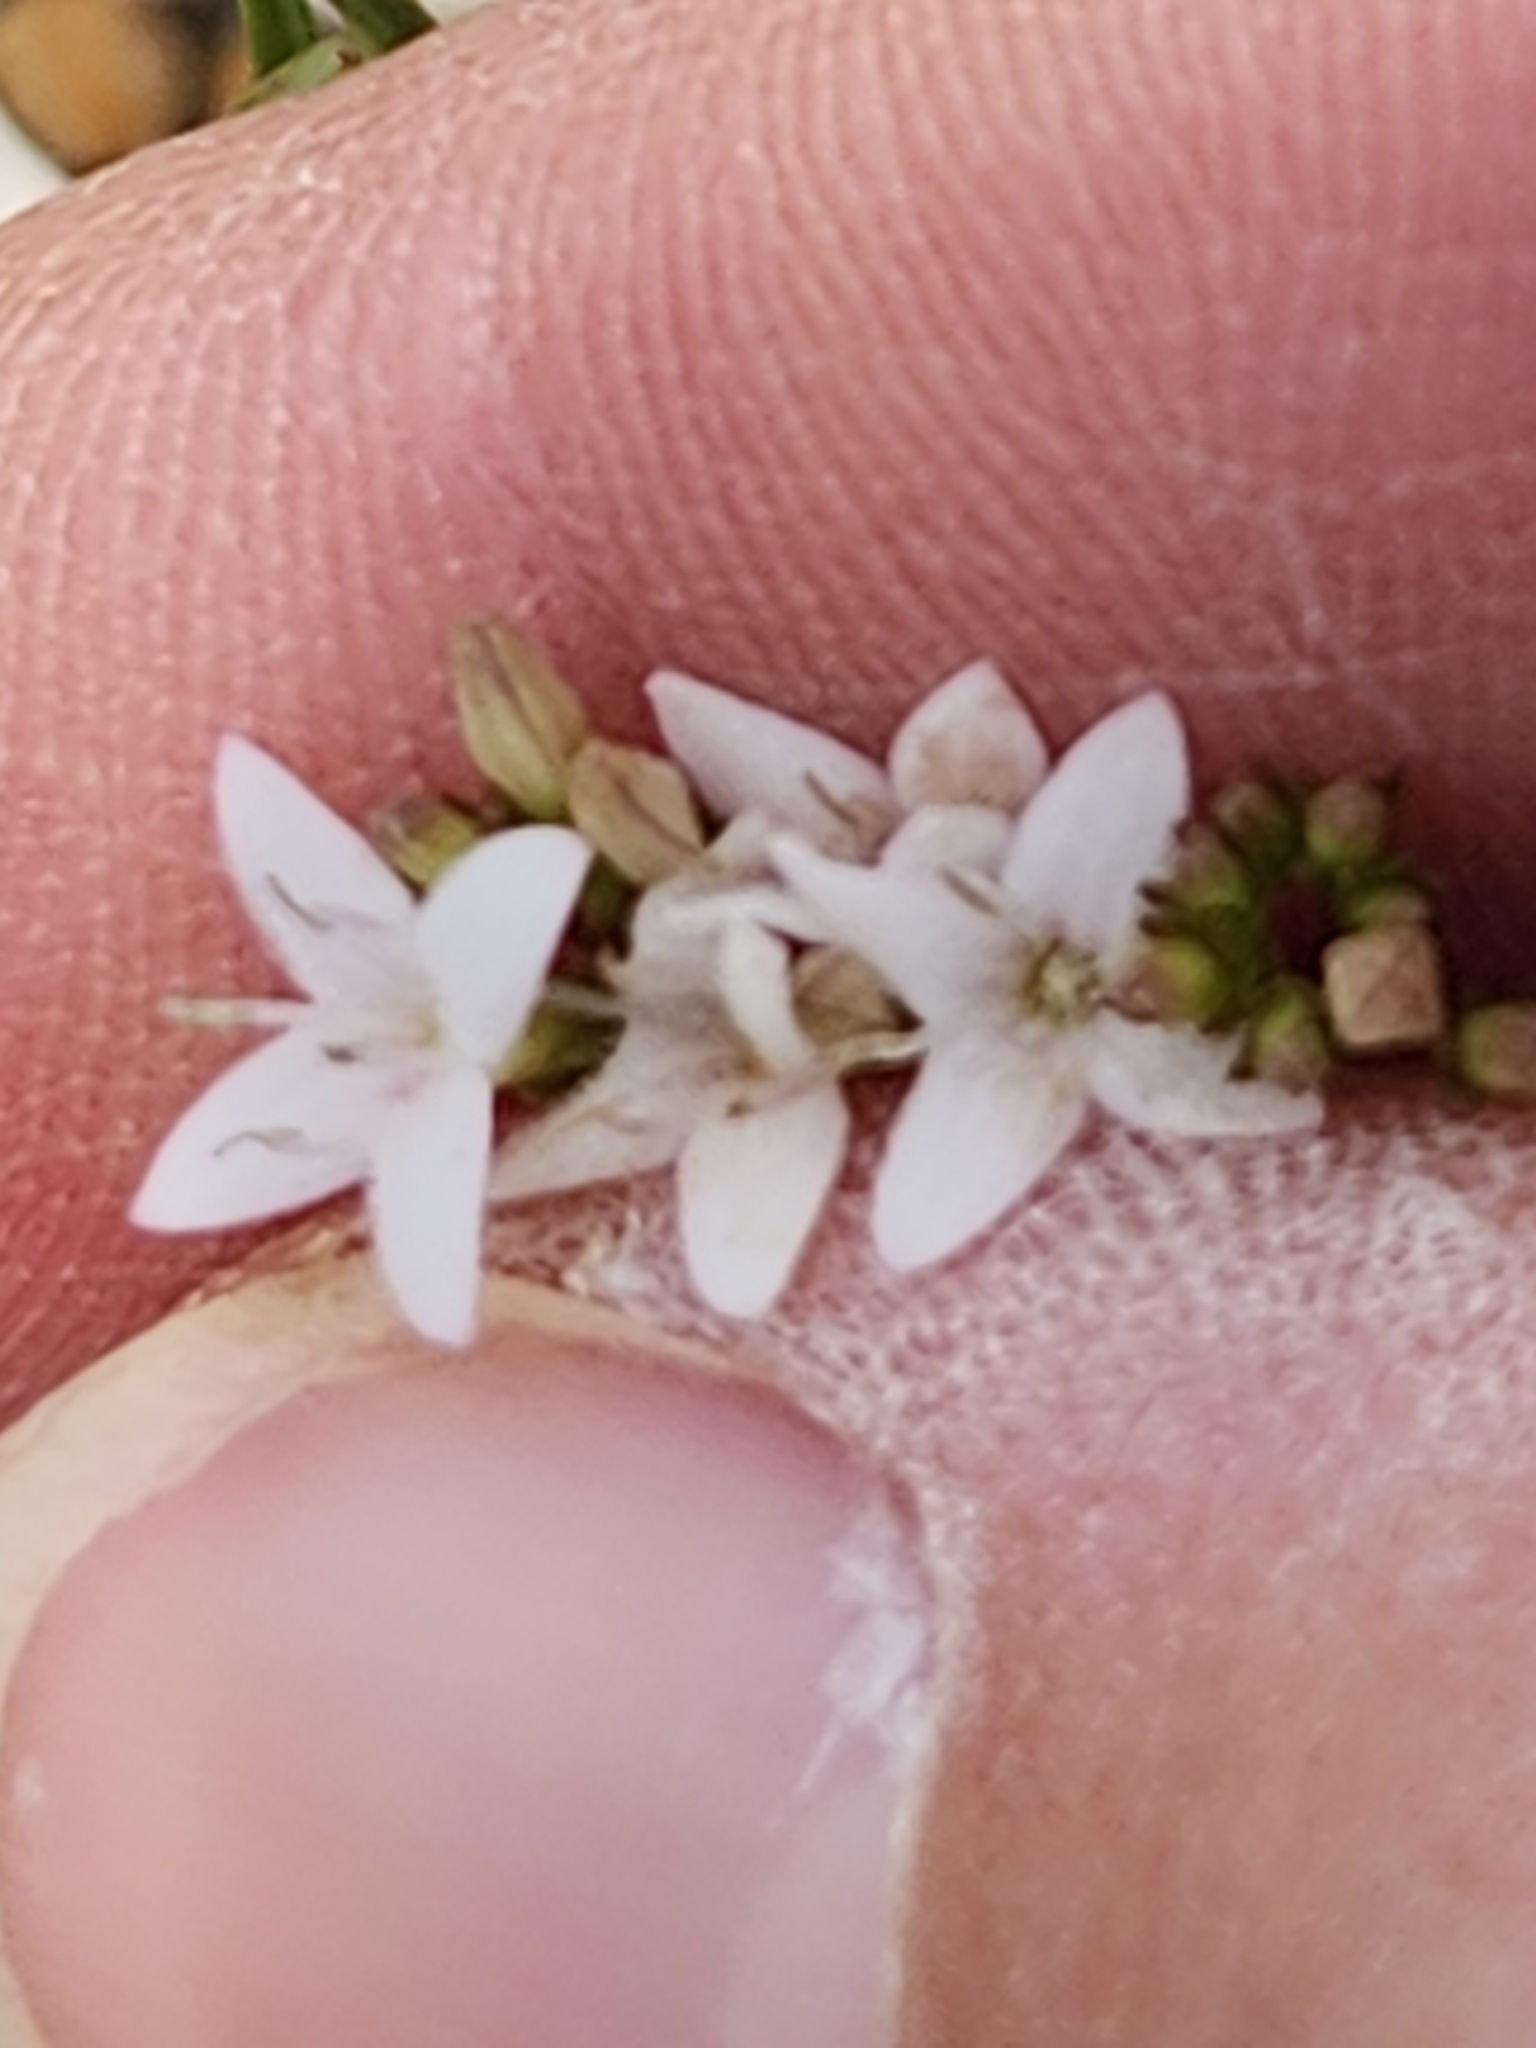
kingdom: Plantae
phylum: Tracheophyta
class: Magnoliopsida
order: Gentianales
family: Rubiaceae
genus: Stenaria
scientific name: Stenaria nigricans
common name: Diamondflowers
